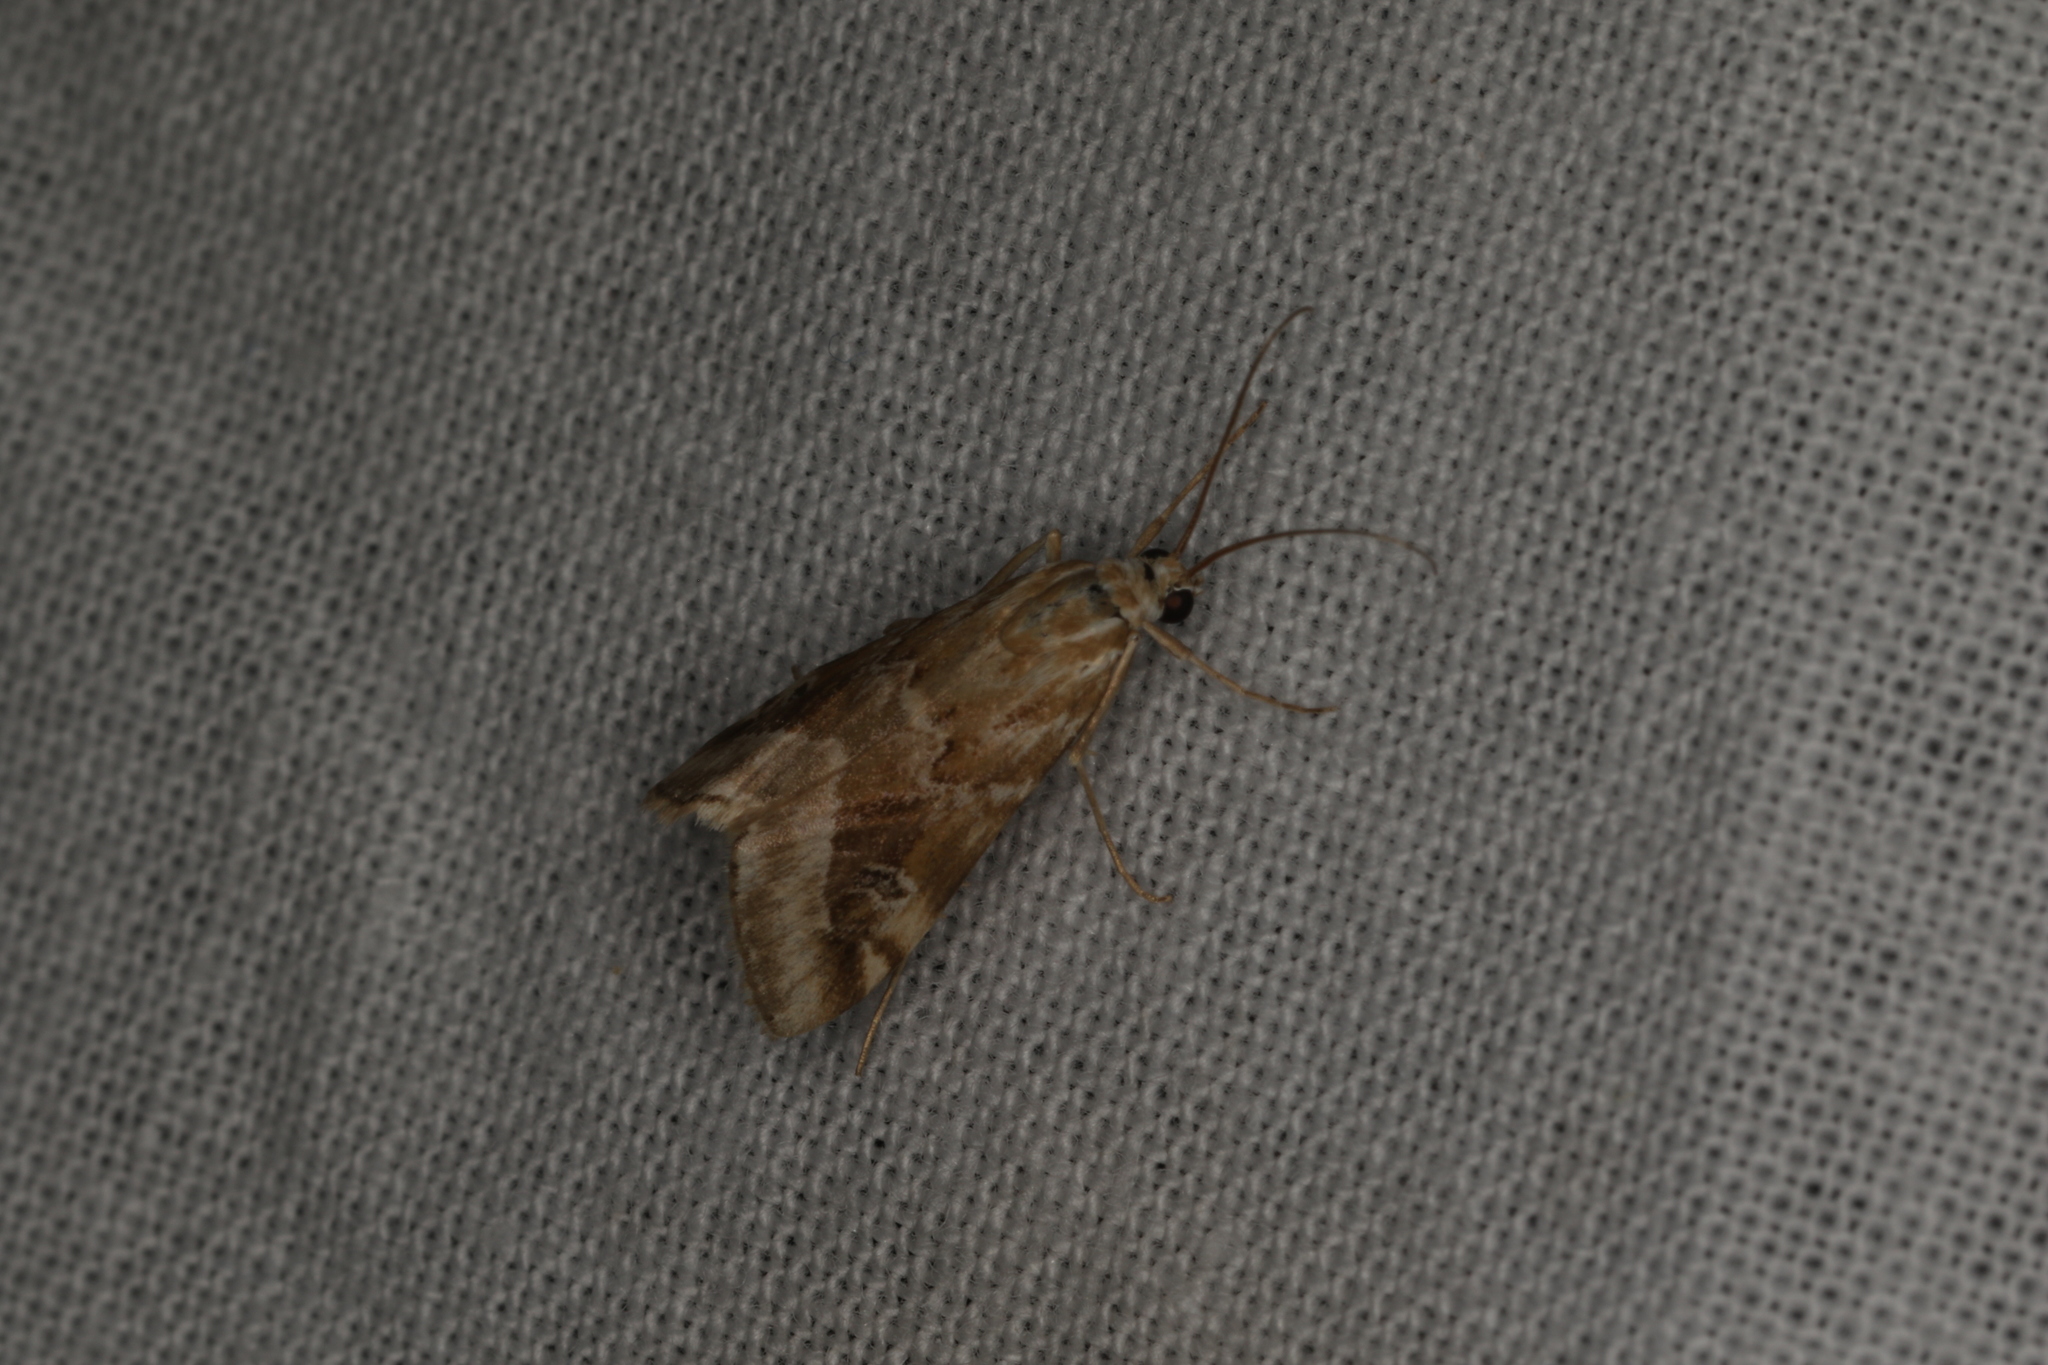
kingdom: Animalia
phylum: Arthropoda
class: Insecta
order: Lepidoptera
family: Crambidae
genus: Hellula
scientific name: Hellula hydralis
